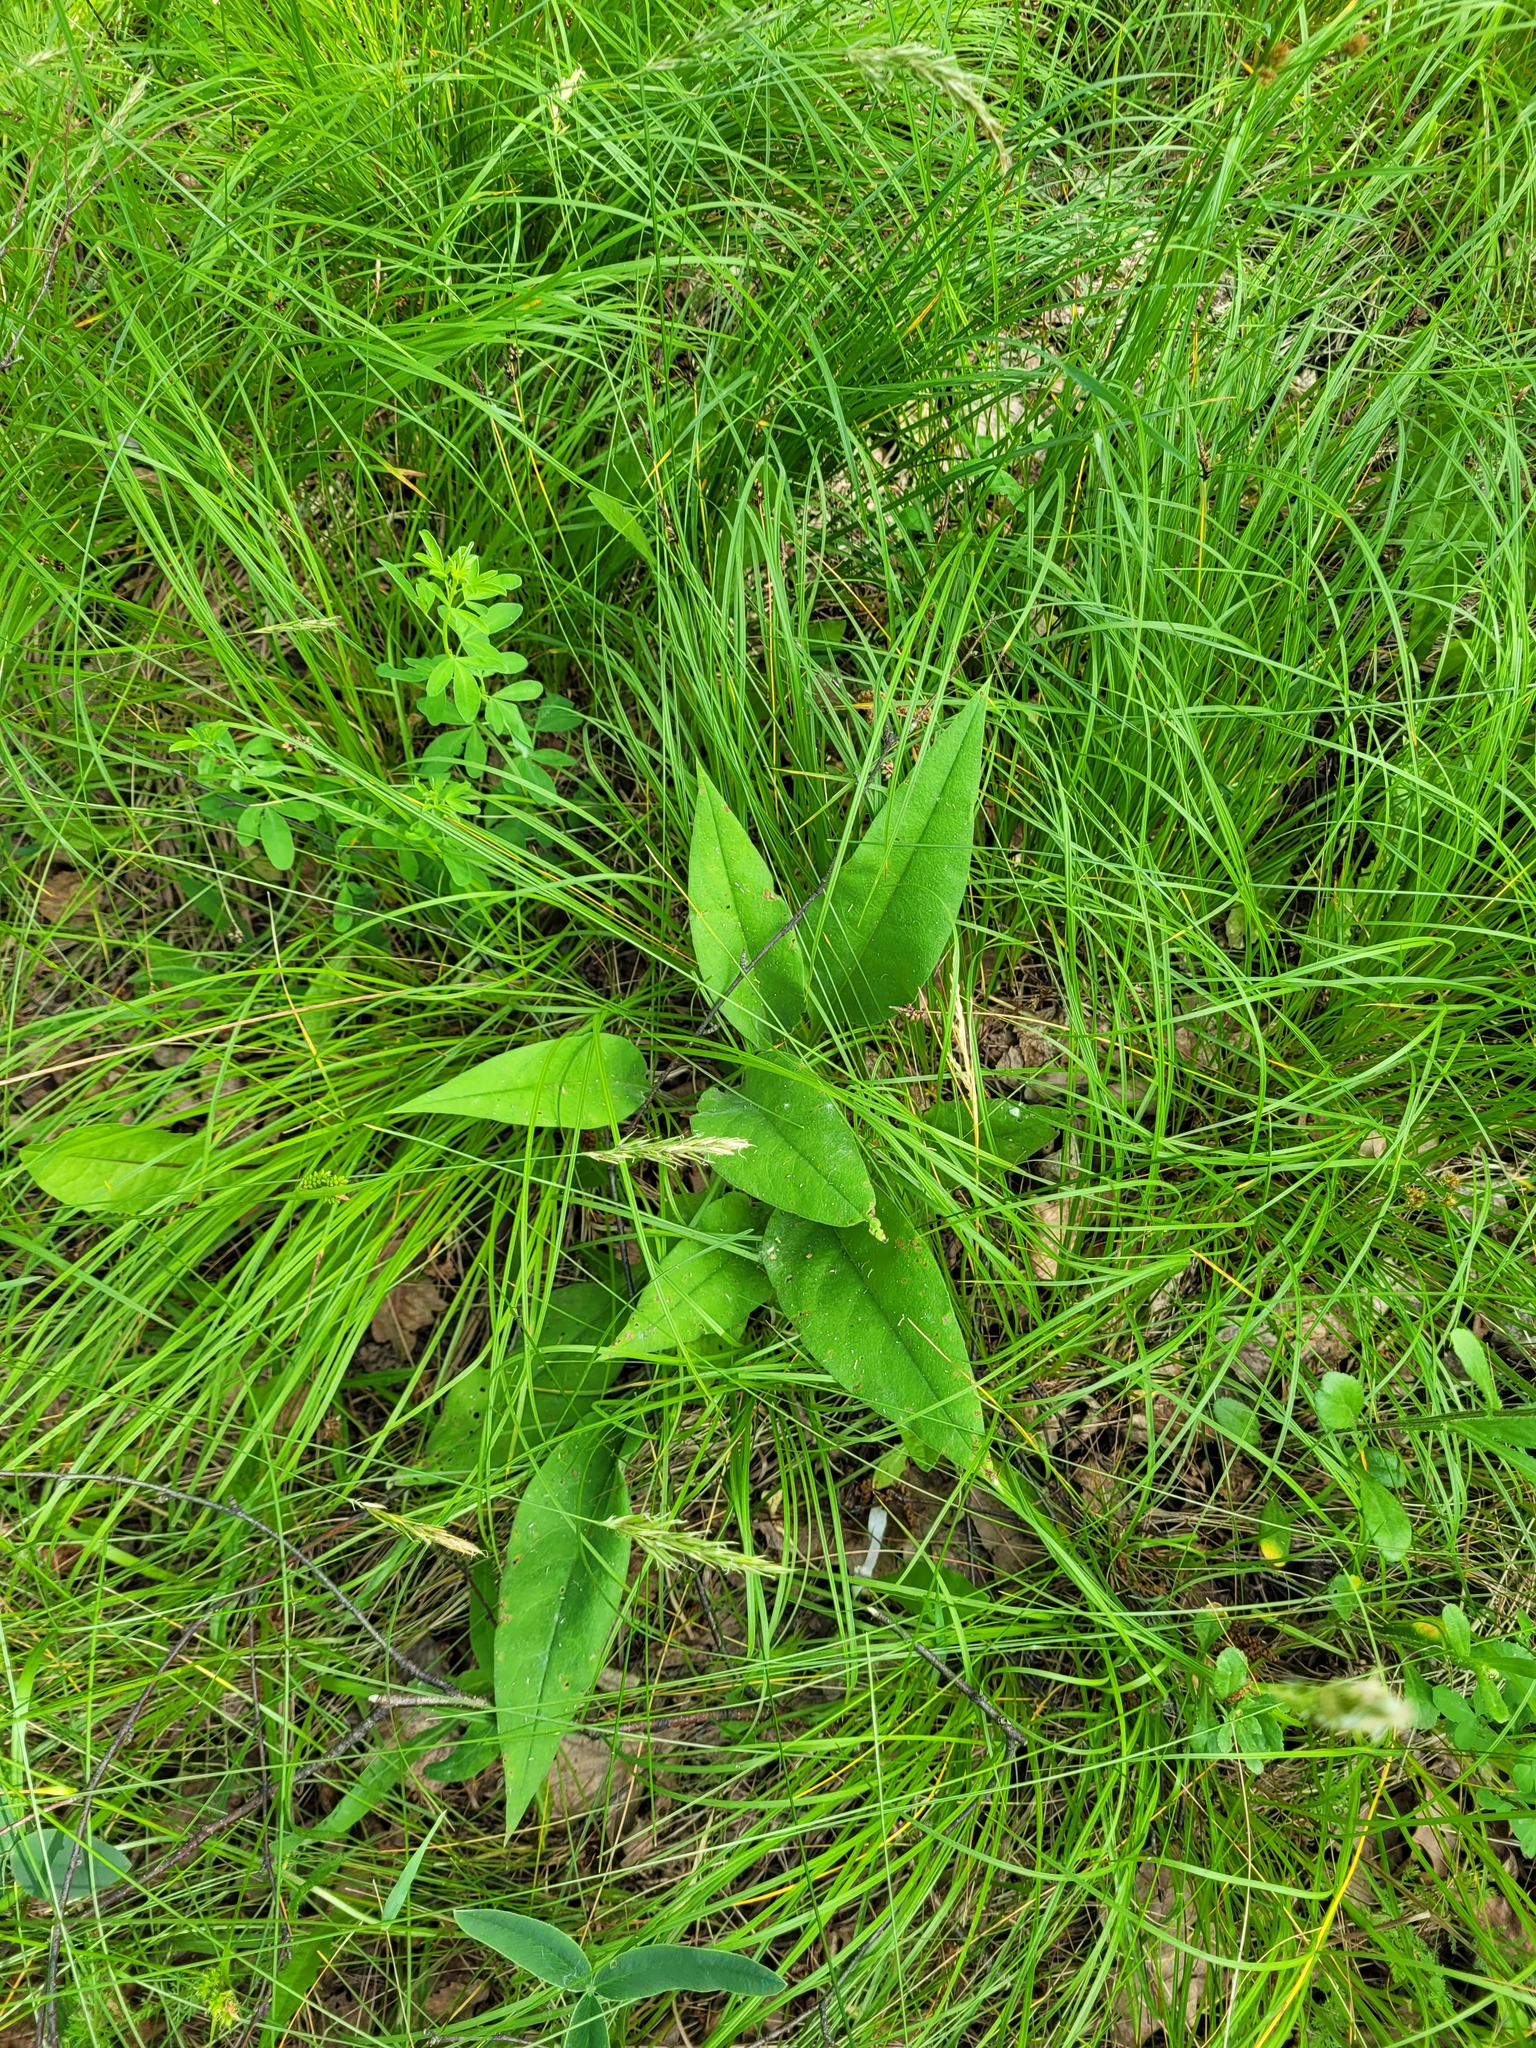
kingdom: Plantae
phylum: Tracheophyta
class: Magnoliopsida
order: Boraginales
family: Boraginaceae
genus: Pulmonaria
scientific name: Pulmonaria notha
